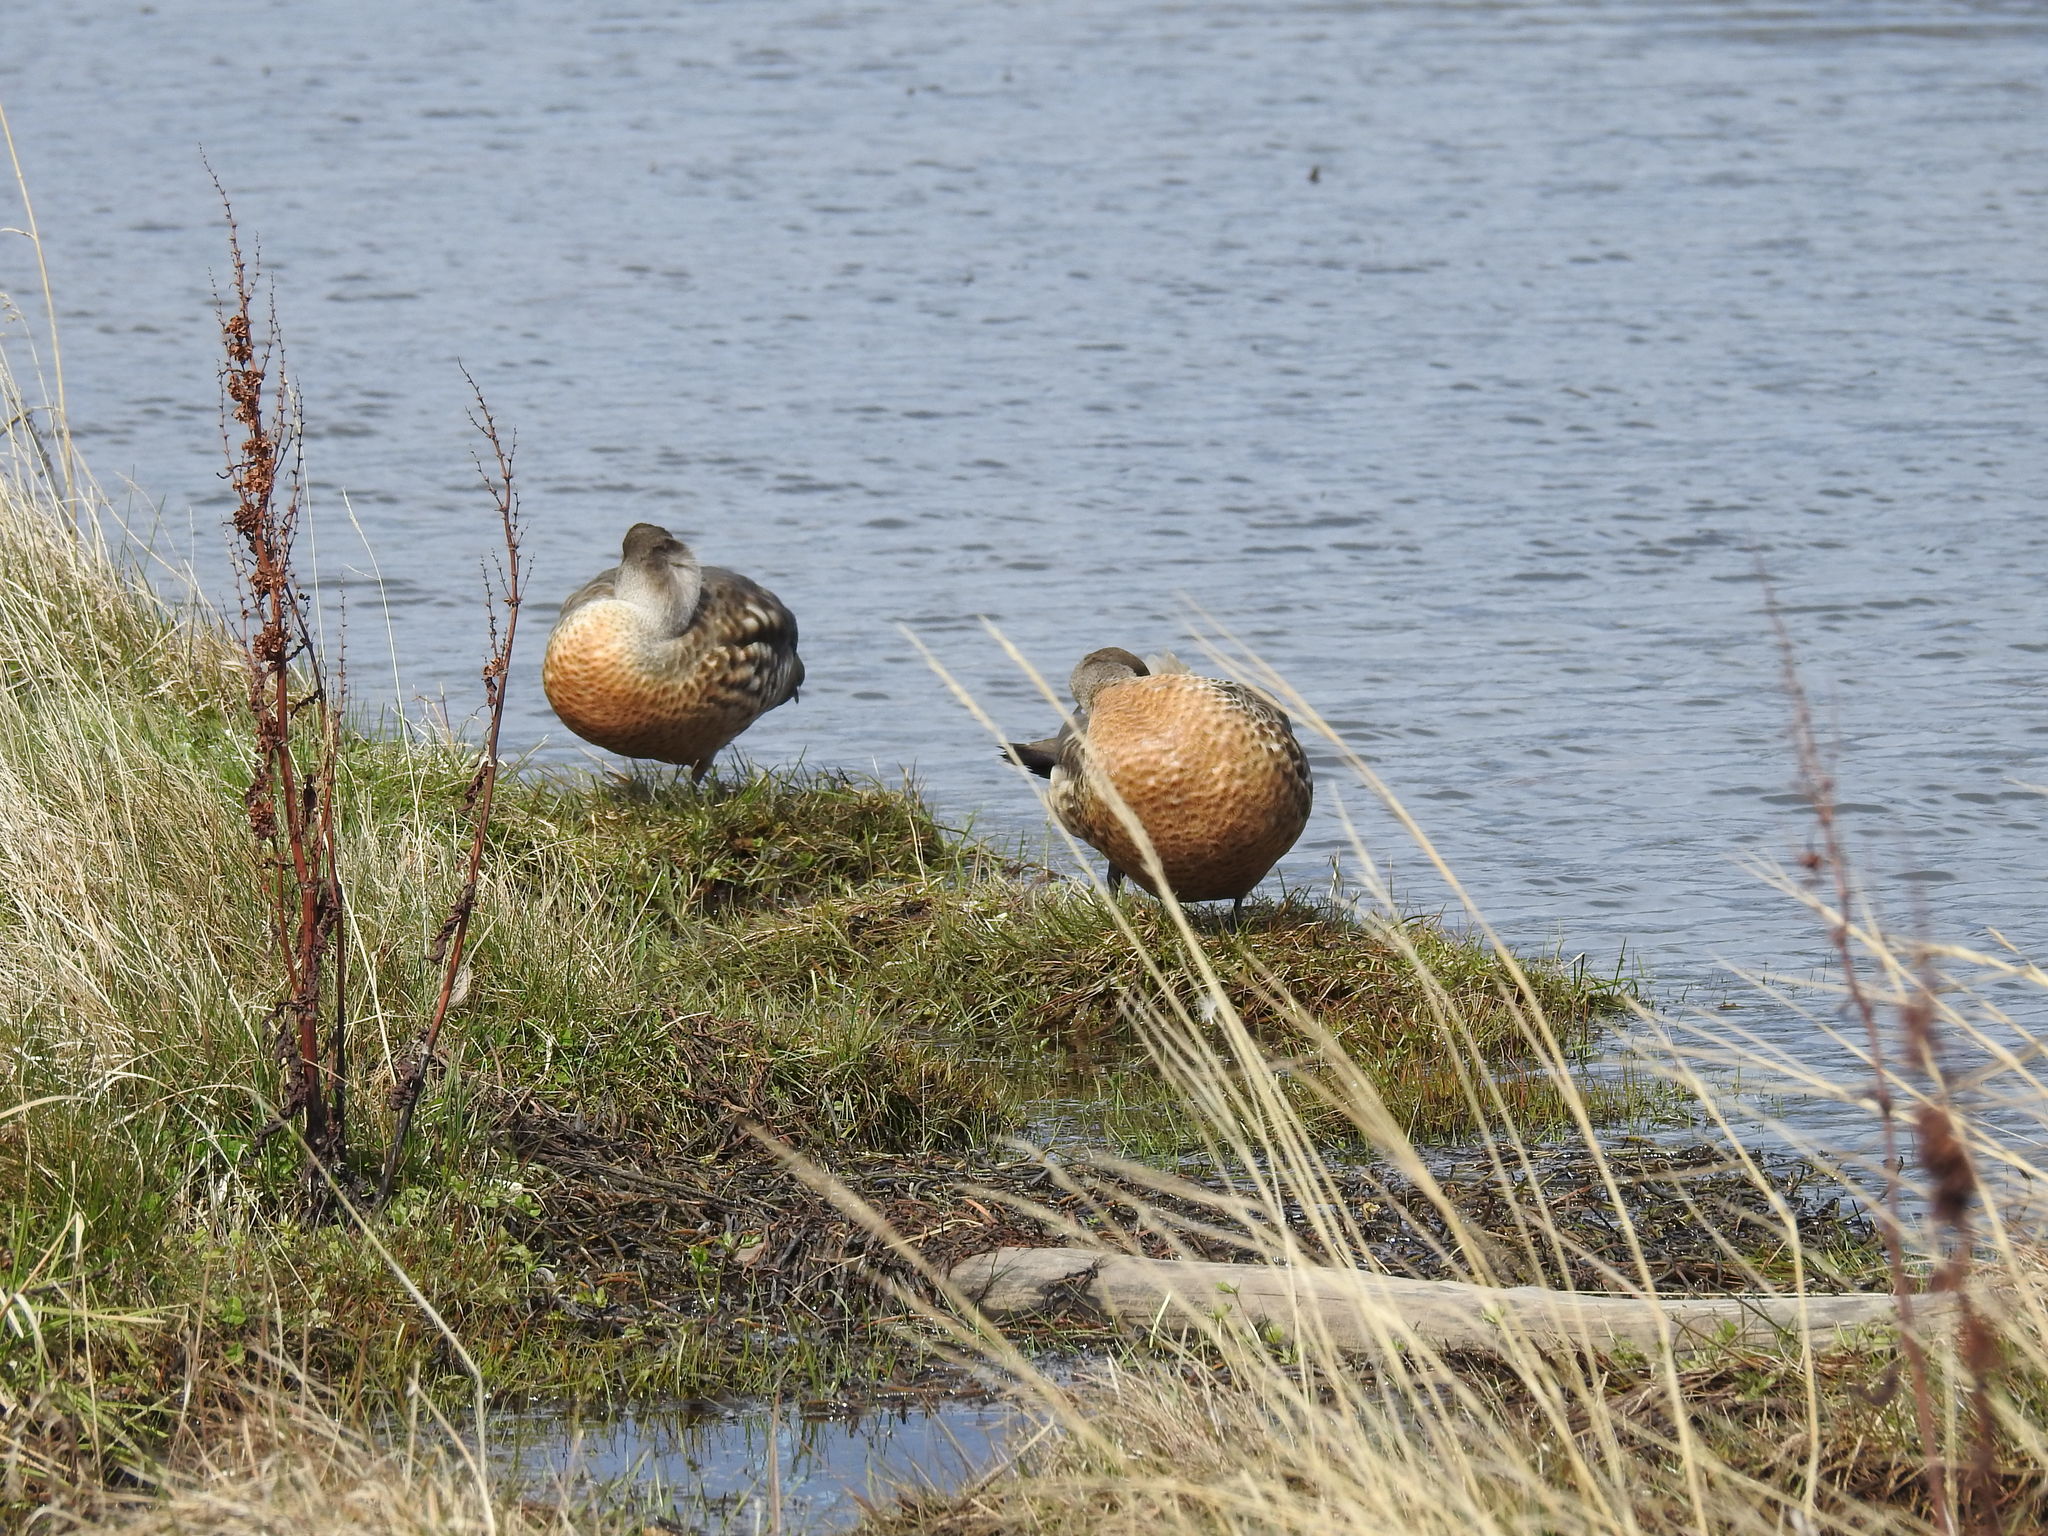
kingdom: Animalia
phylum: Chordata
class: Aves
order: Anseriformes
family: Anatidae
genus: Lophonetta
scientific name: Lophonetta specularioides
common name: Crested duck
